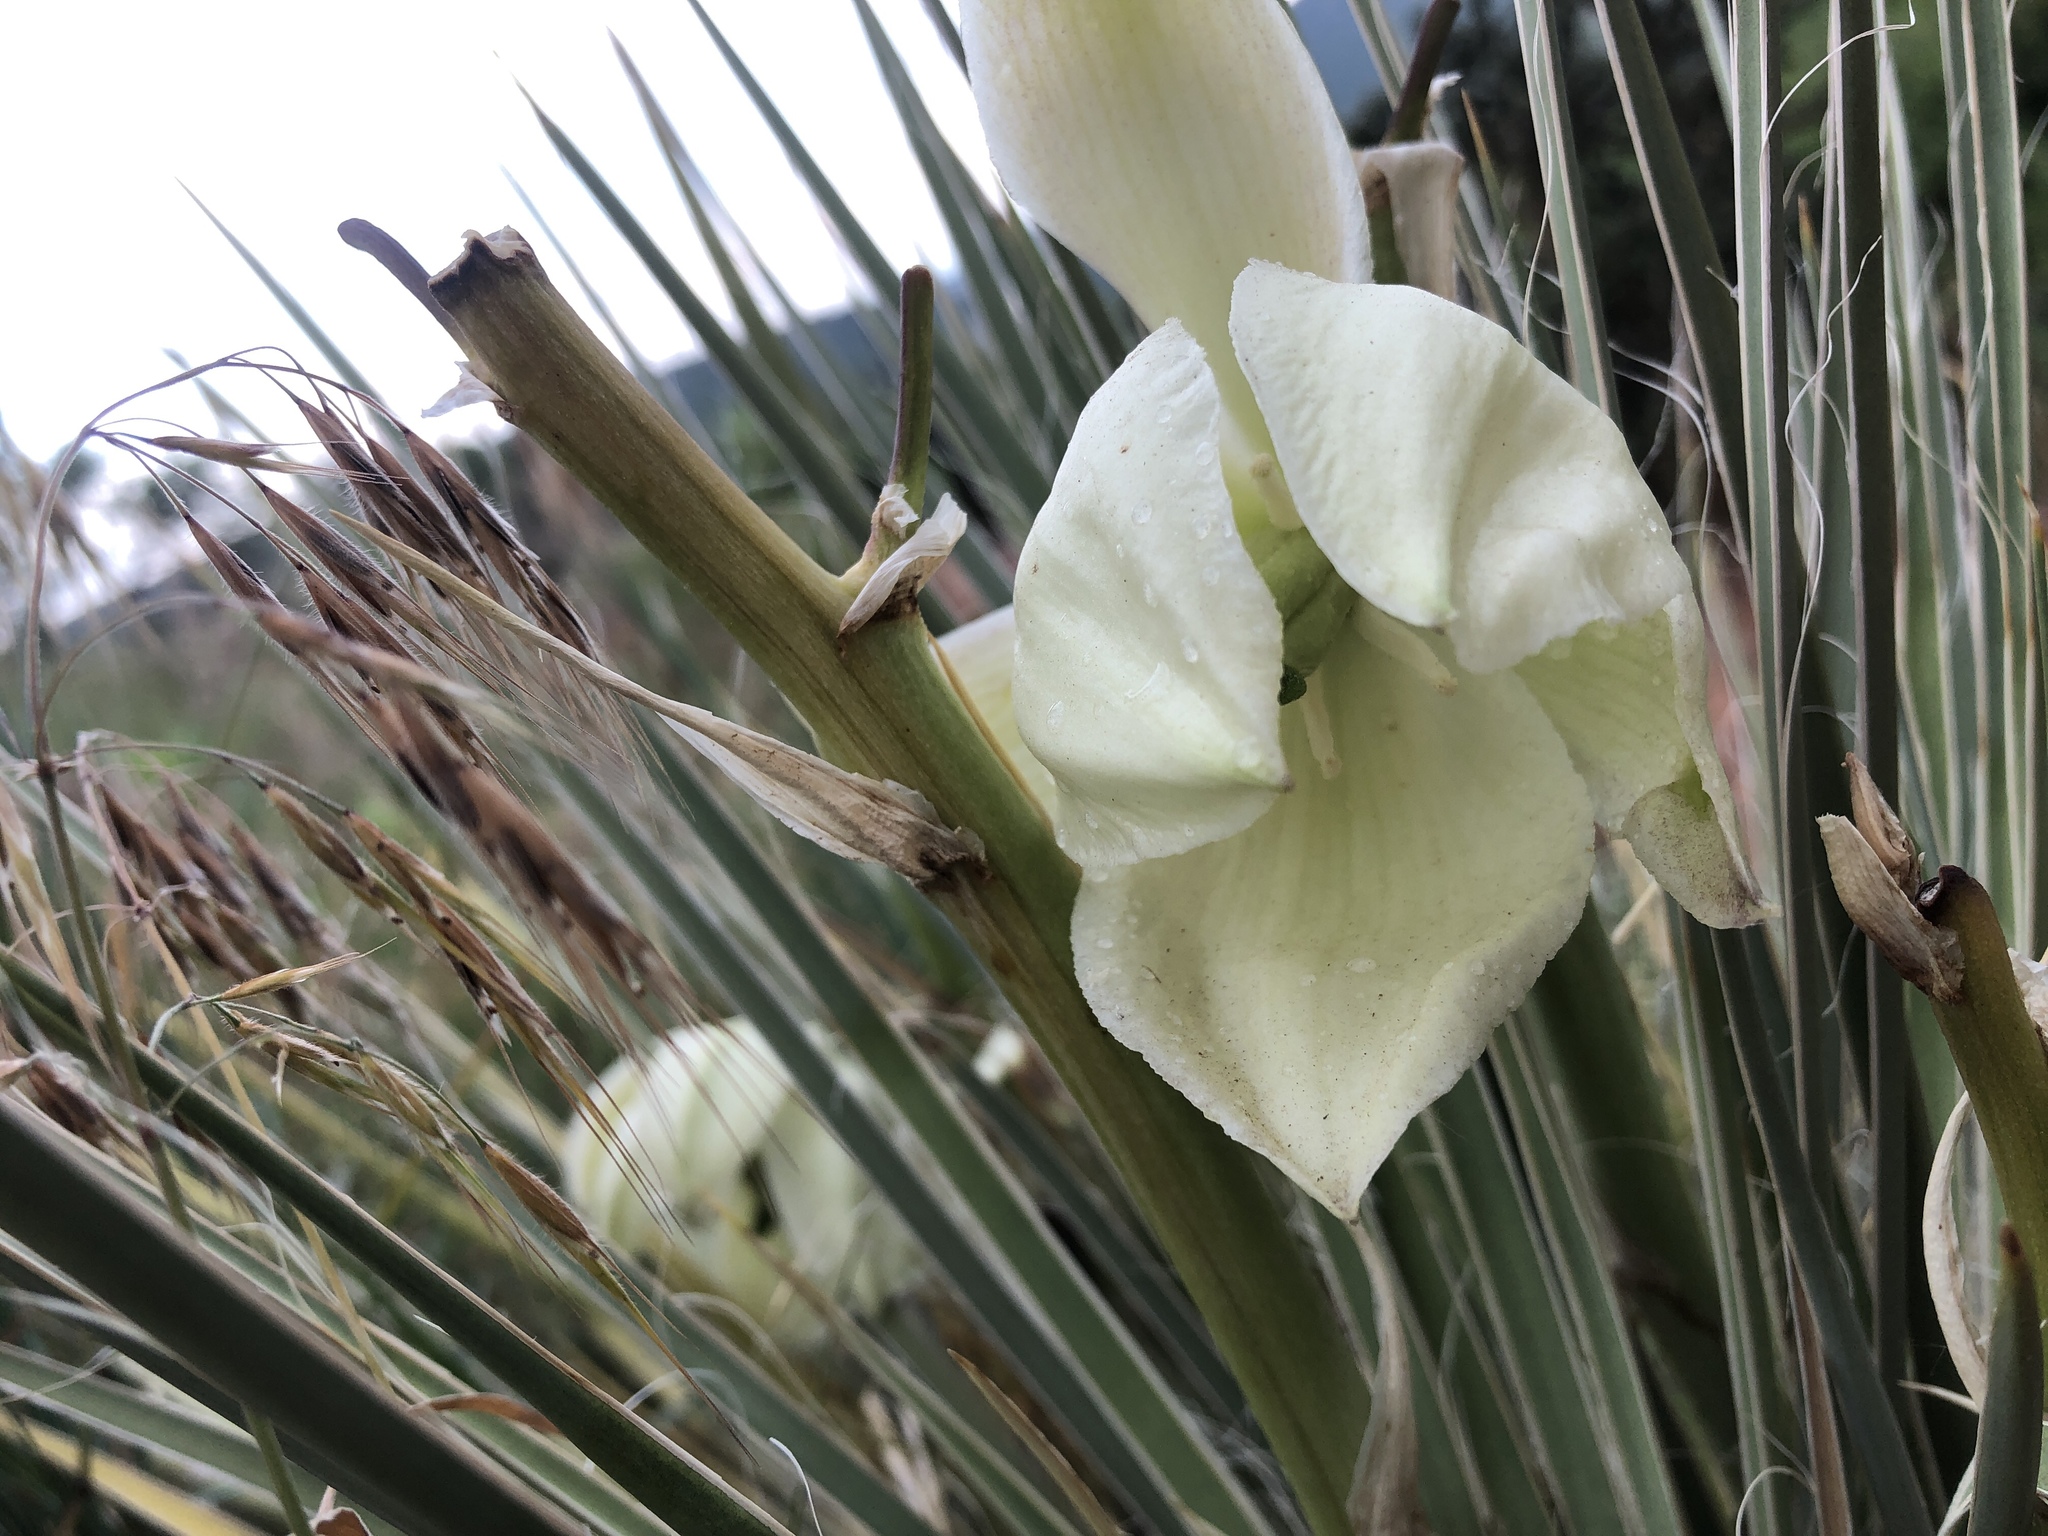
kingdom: Plantae
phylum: Tracheophyta
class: Liliopsida
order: Asparagales
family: Asparagaceae
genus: Yucca
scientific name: Yucca glauca
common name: Great plains yucca
